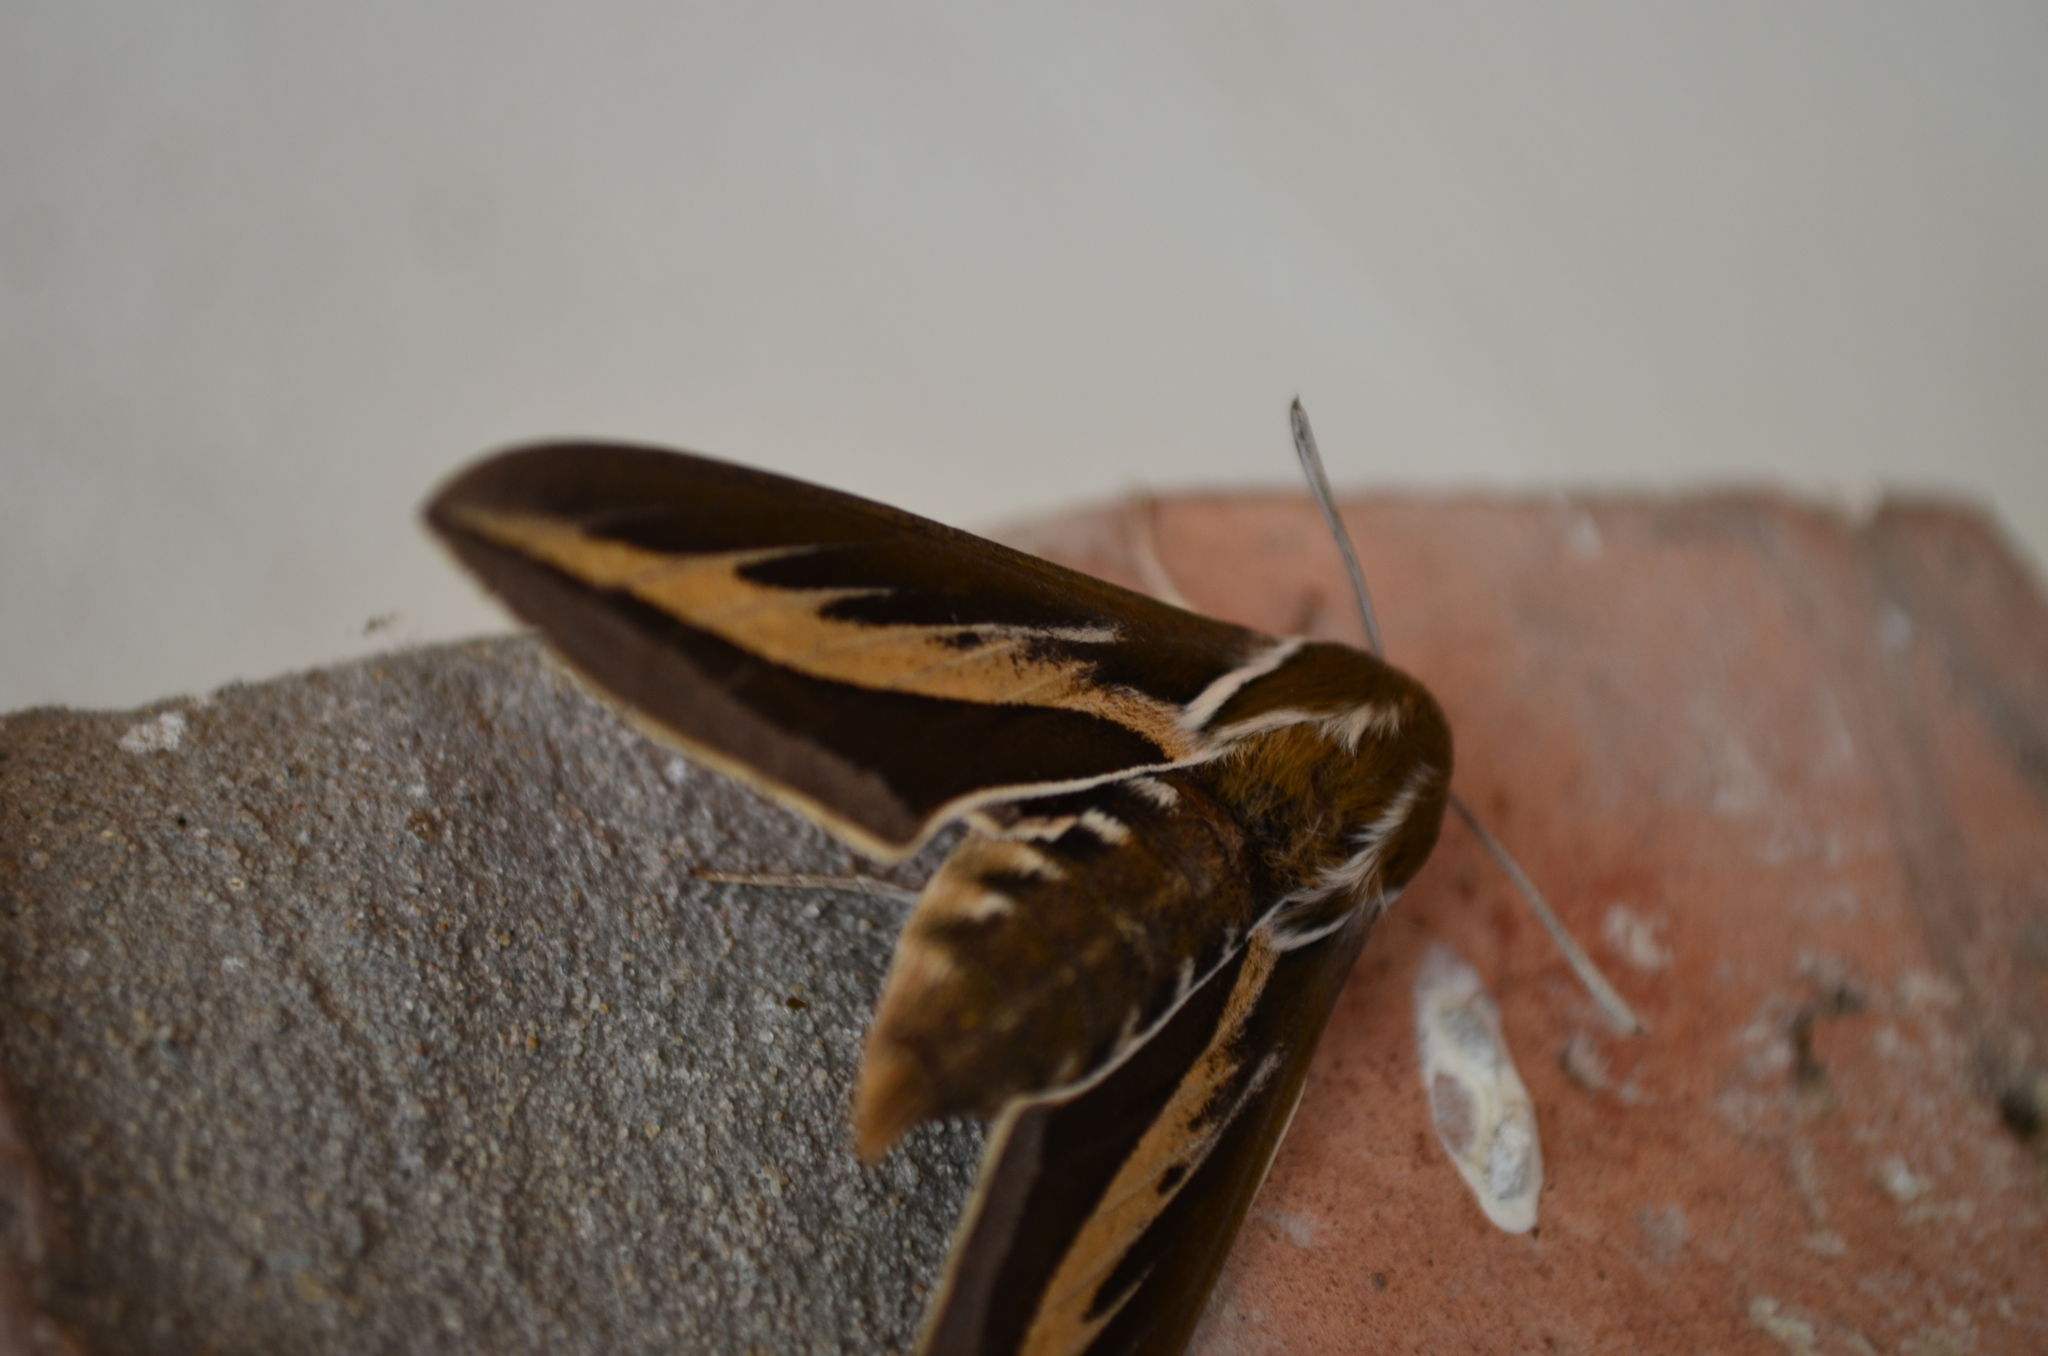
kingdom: Animalia
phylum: Arthropoda
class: Insecta
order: Lepidoptera
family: Sphingidae
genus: Hyles
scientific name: Hyles euphorbiarum
